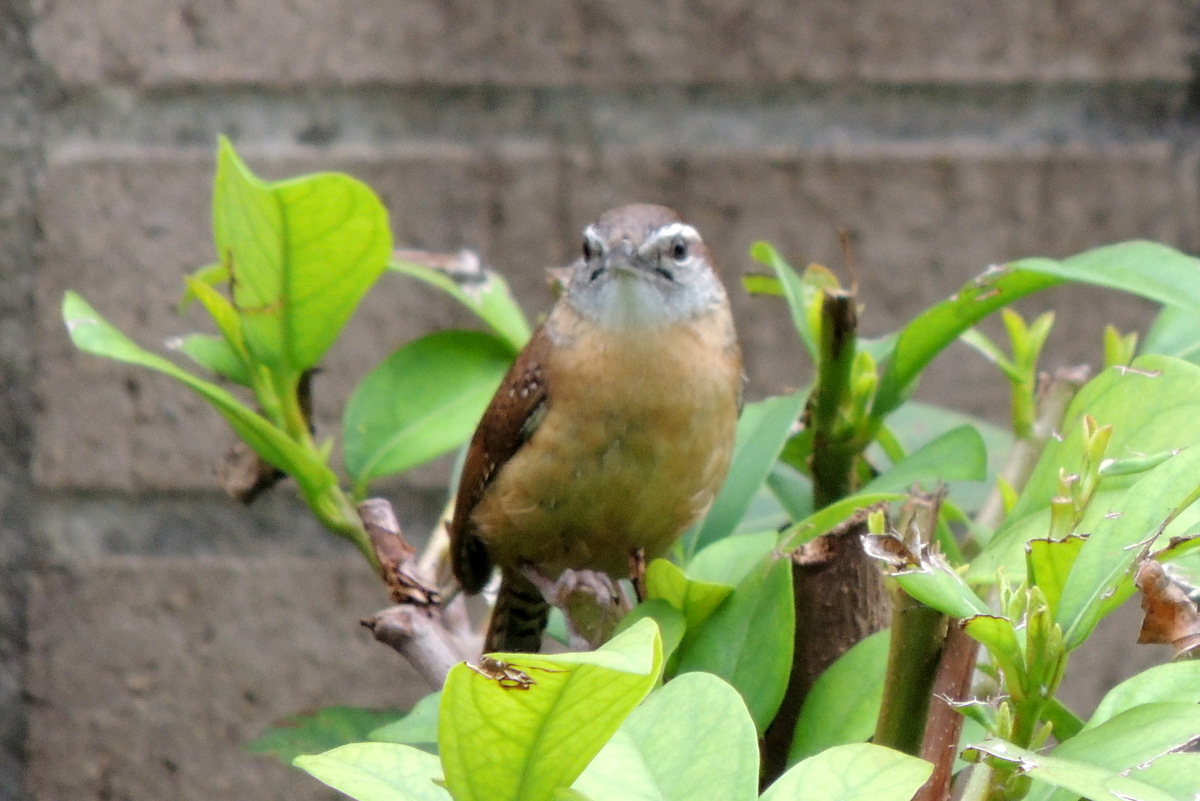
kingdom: Animalia
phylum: Chordata
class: Aves
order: Passeriformes
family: Troglodytidae
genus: Thryothorus
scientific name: Thryothorus ludovicianus
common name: Carolina wren
